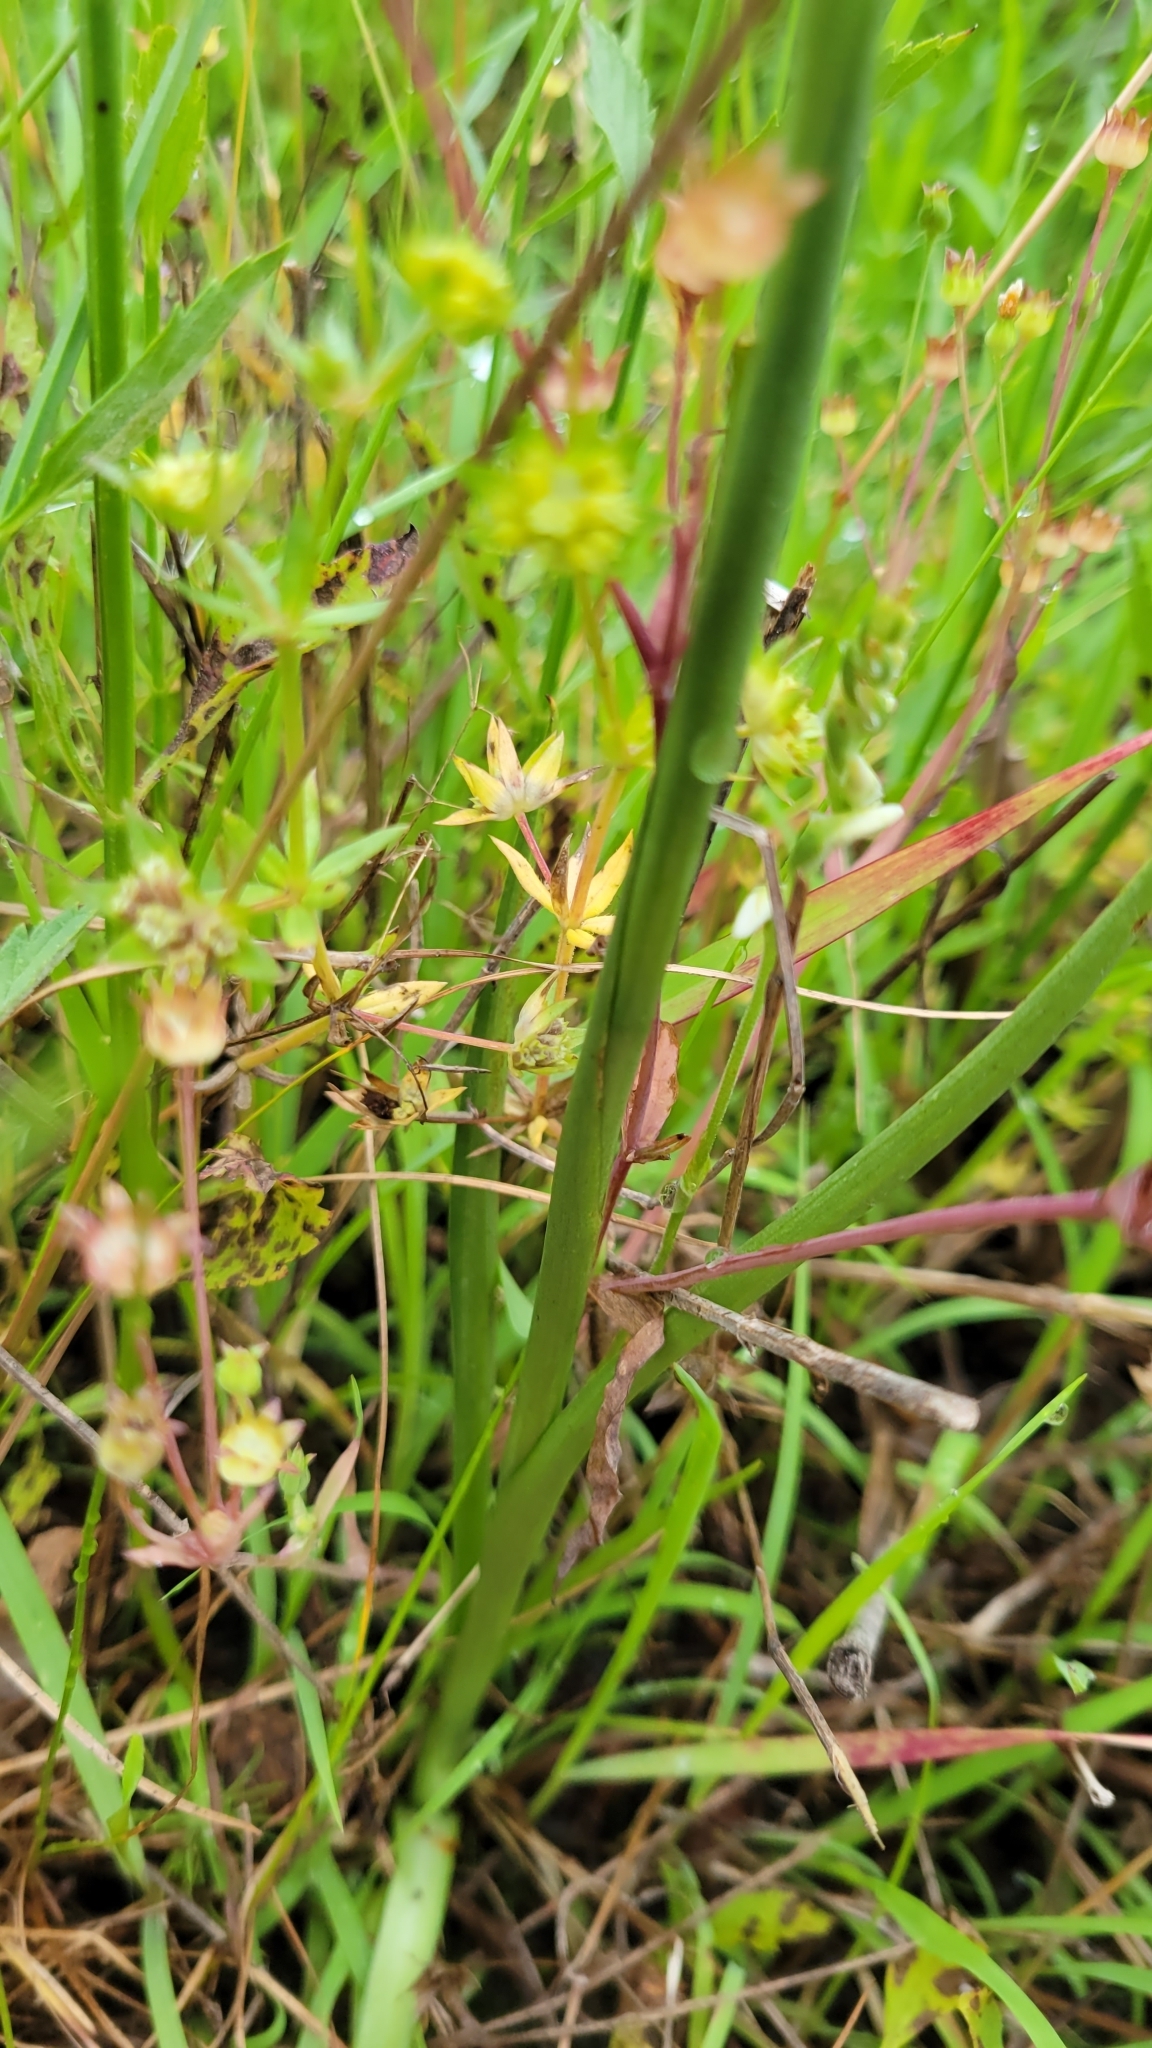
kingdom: Plantae
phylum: Tracheophyta
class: Liliopsida
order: Asparagales
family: Orchidaceae
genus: Spiranthes
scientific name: Spiranthes vernalis
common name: Spring ladies'-tresses
